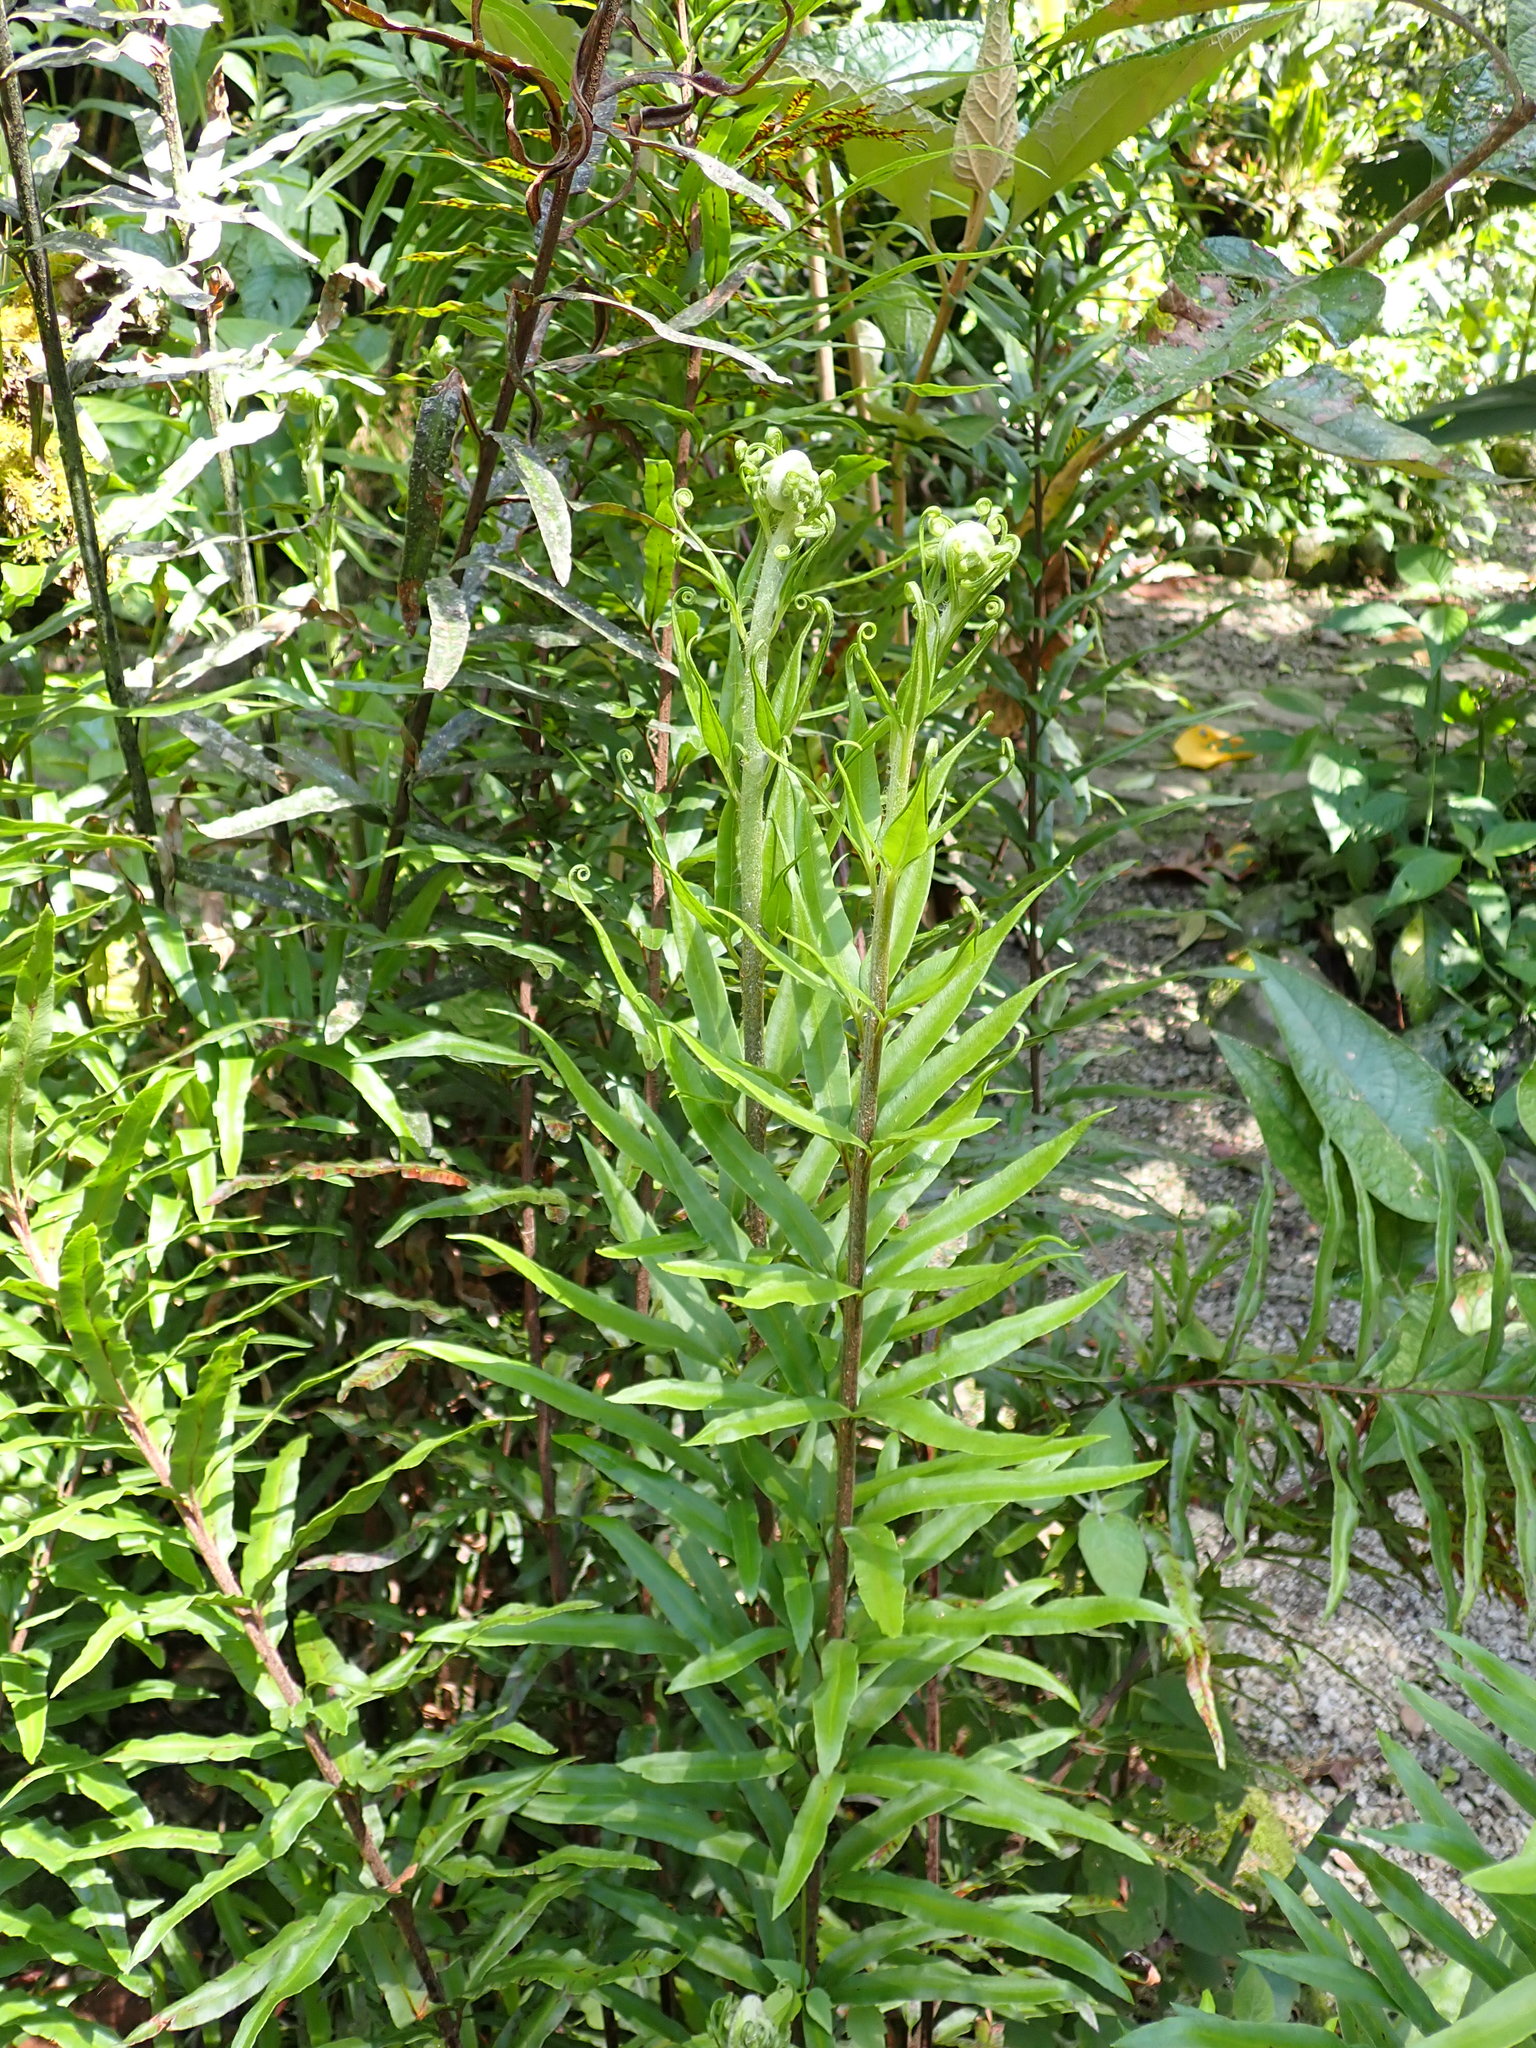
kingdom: Plantae
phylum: Tracheophyta
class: Polypodiopsida
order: Polypodiales
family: Pteridaceae
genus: Pityrogramma
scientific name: Pityrogramma trifoliata
